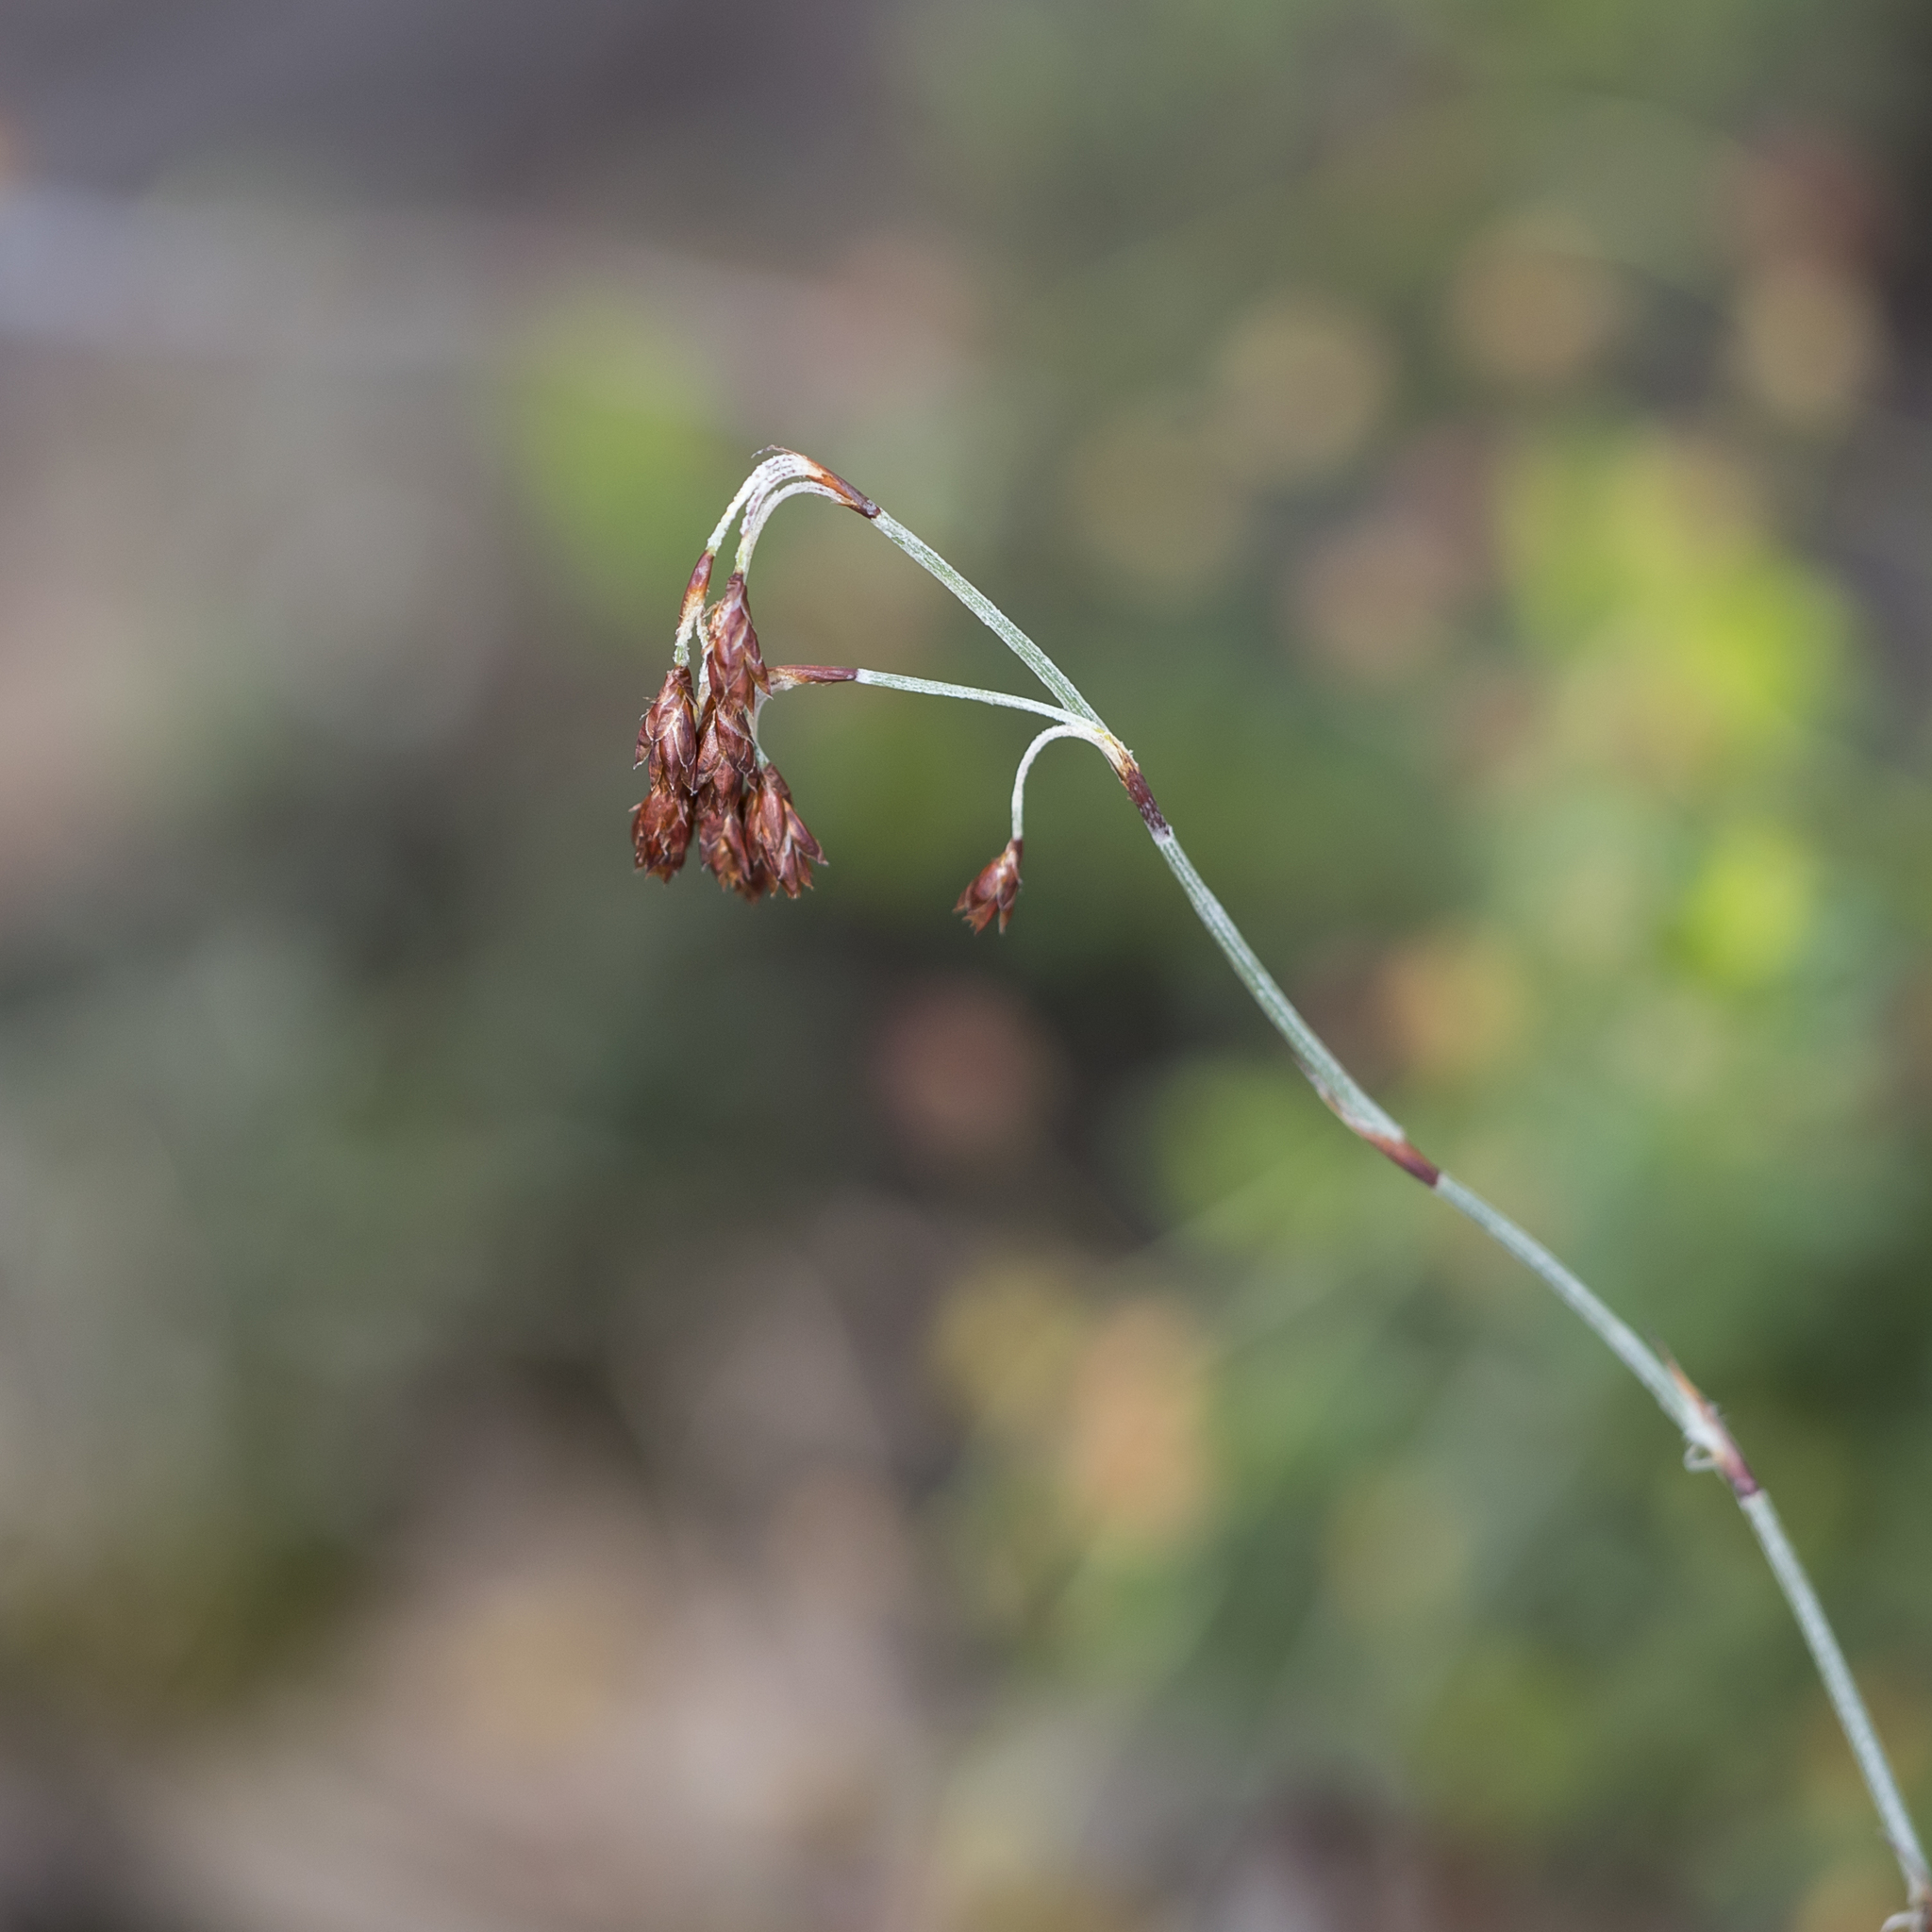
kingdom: Plantae
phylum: Tracheophyta
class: Liliopsida
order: Poales
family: Restionaceae
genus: Hypolaena
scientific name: Hypolaena fastigiata
